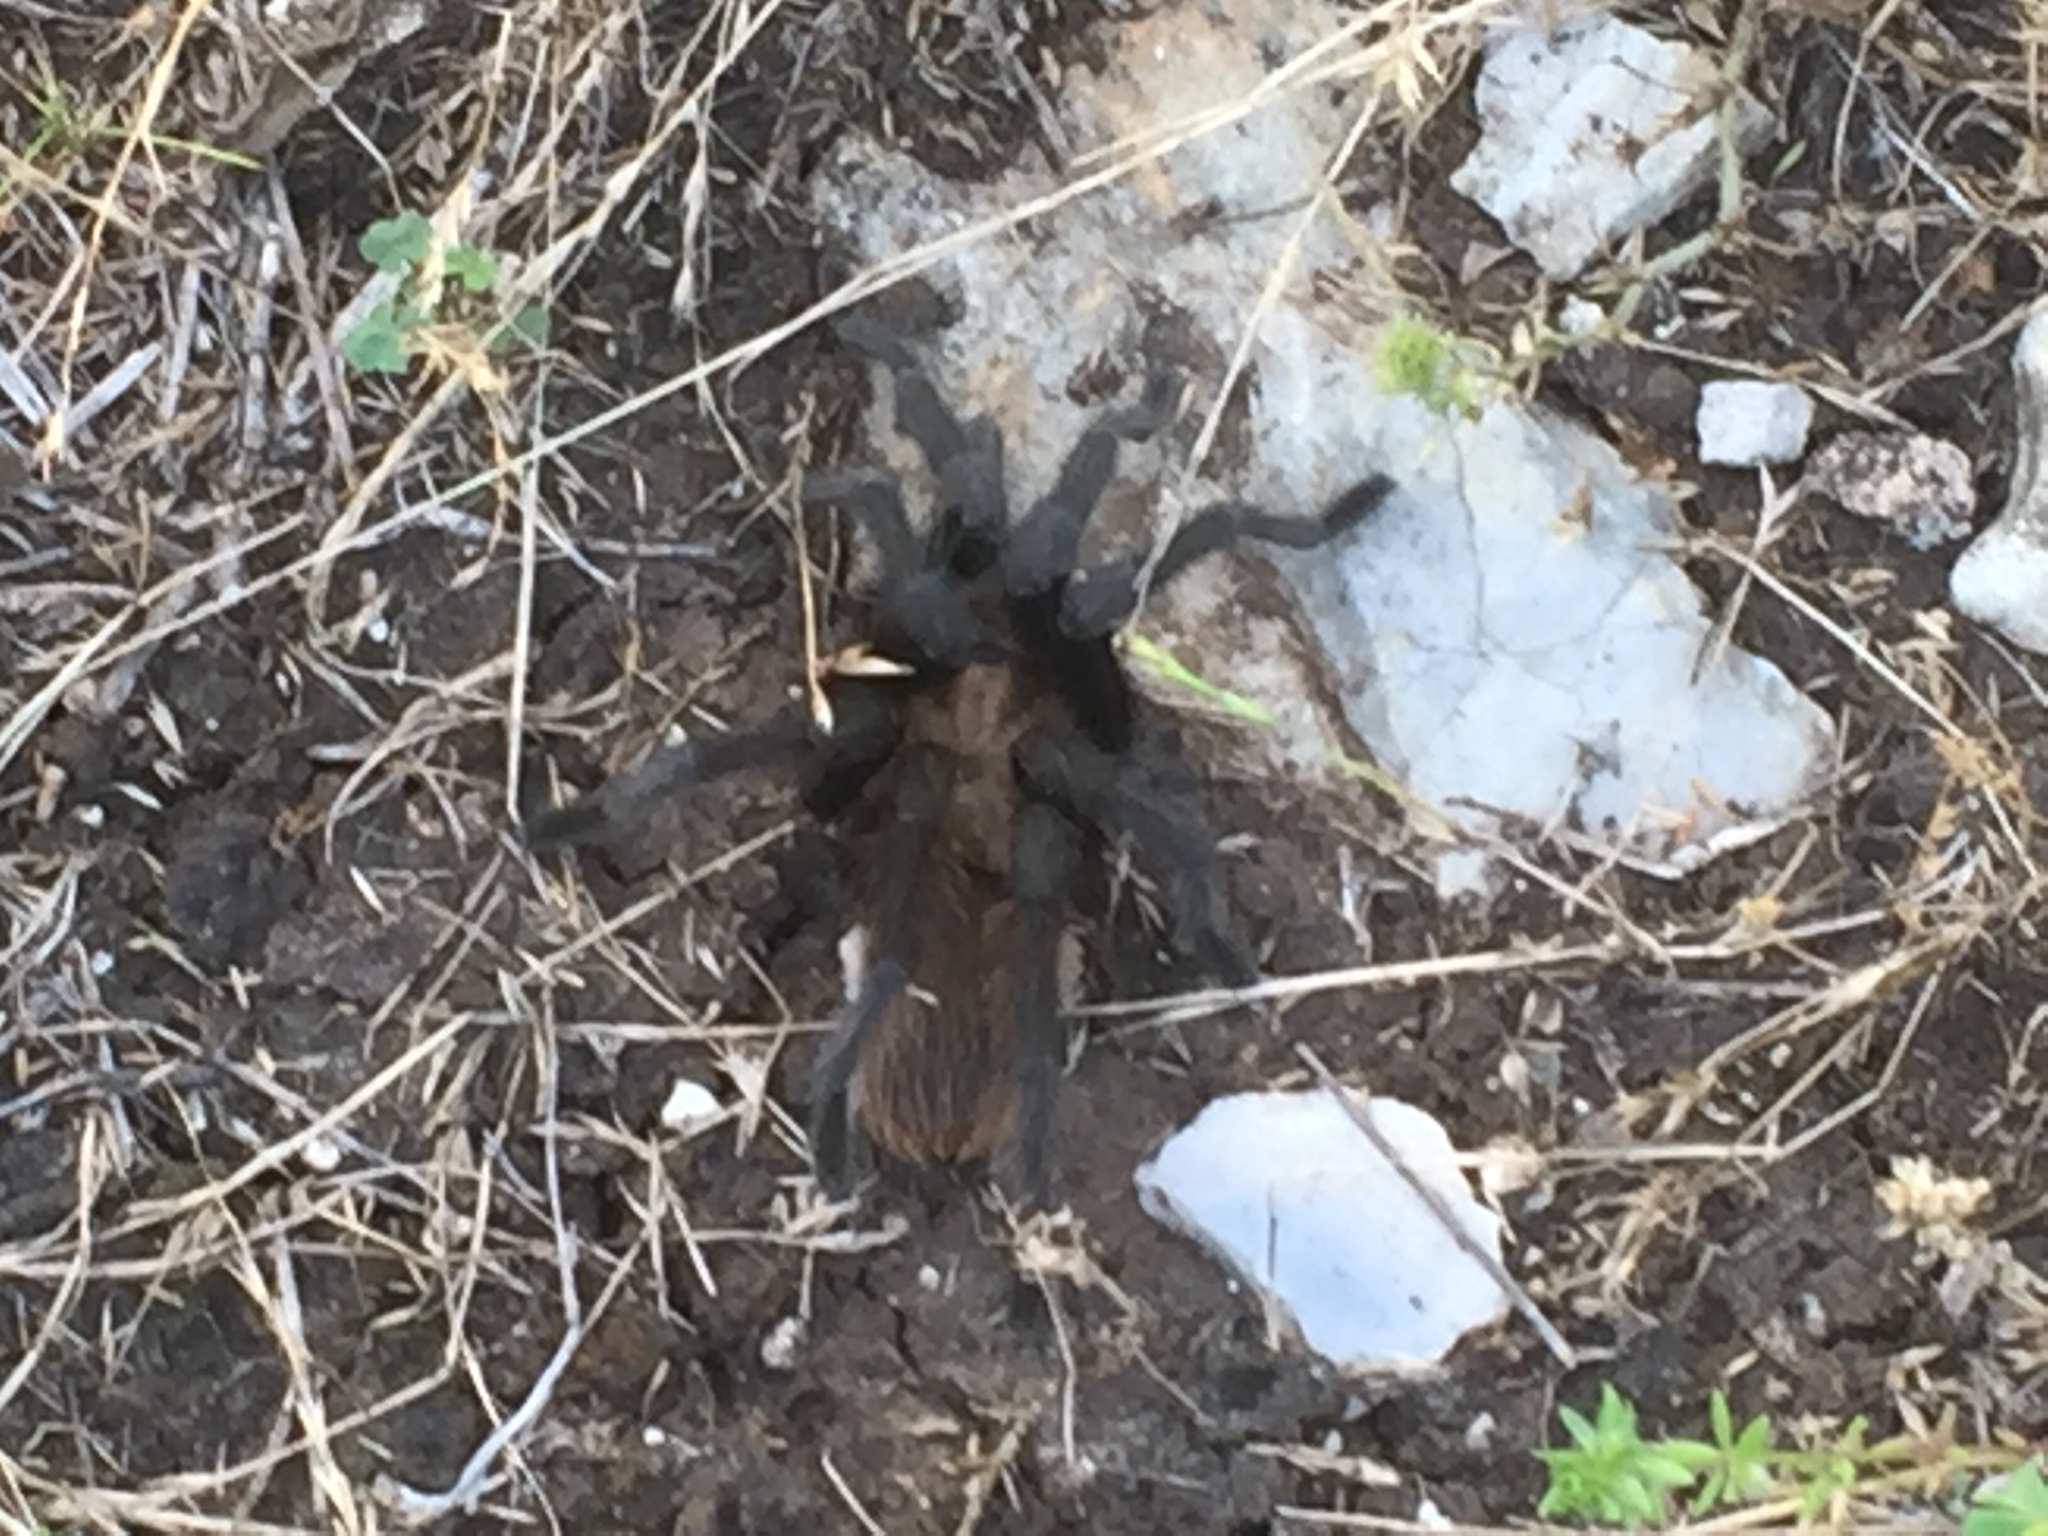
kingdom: Animalia
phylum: Arthropoda
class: Arachnida
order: Araneae
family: Theraphosidae
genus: Aphonopelma
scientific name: Aphonopelma hentzi
